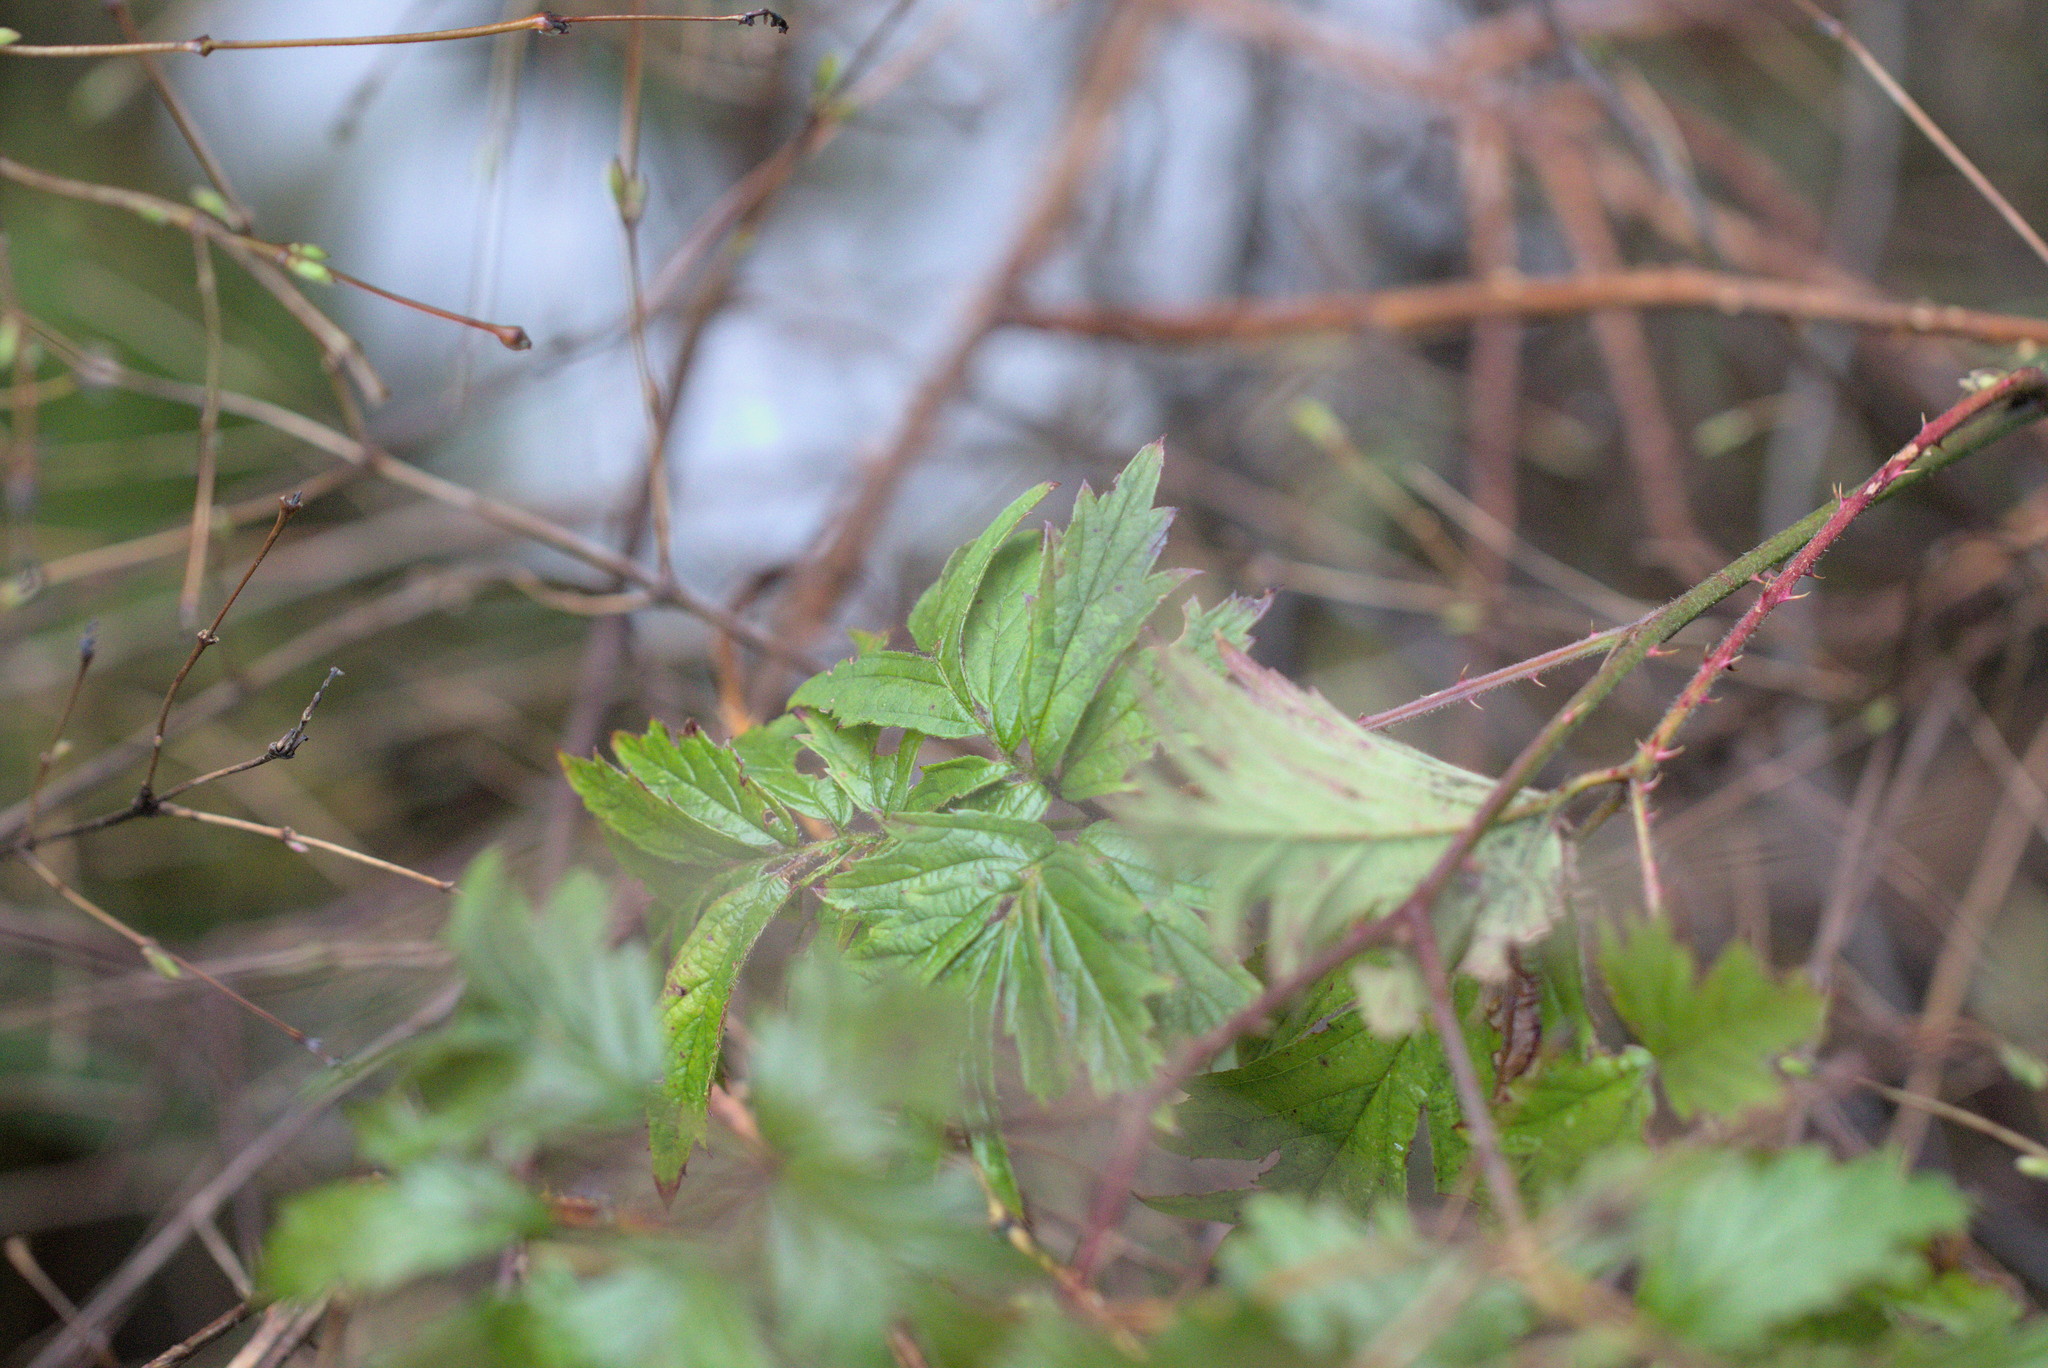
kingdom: Plantae
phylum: Tracheophyta
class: Magnoliopsida
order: Rosales
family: Rosaceae
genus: Rubus
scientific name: Rubus laciniatus
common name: Evergreen blackberry
